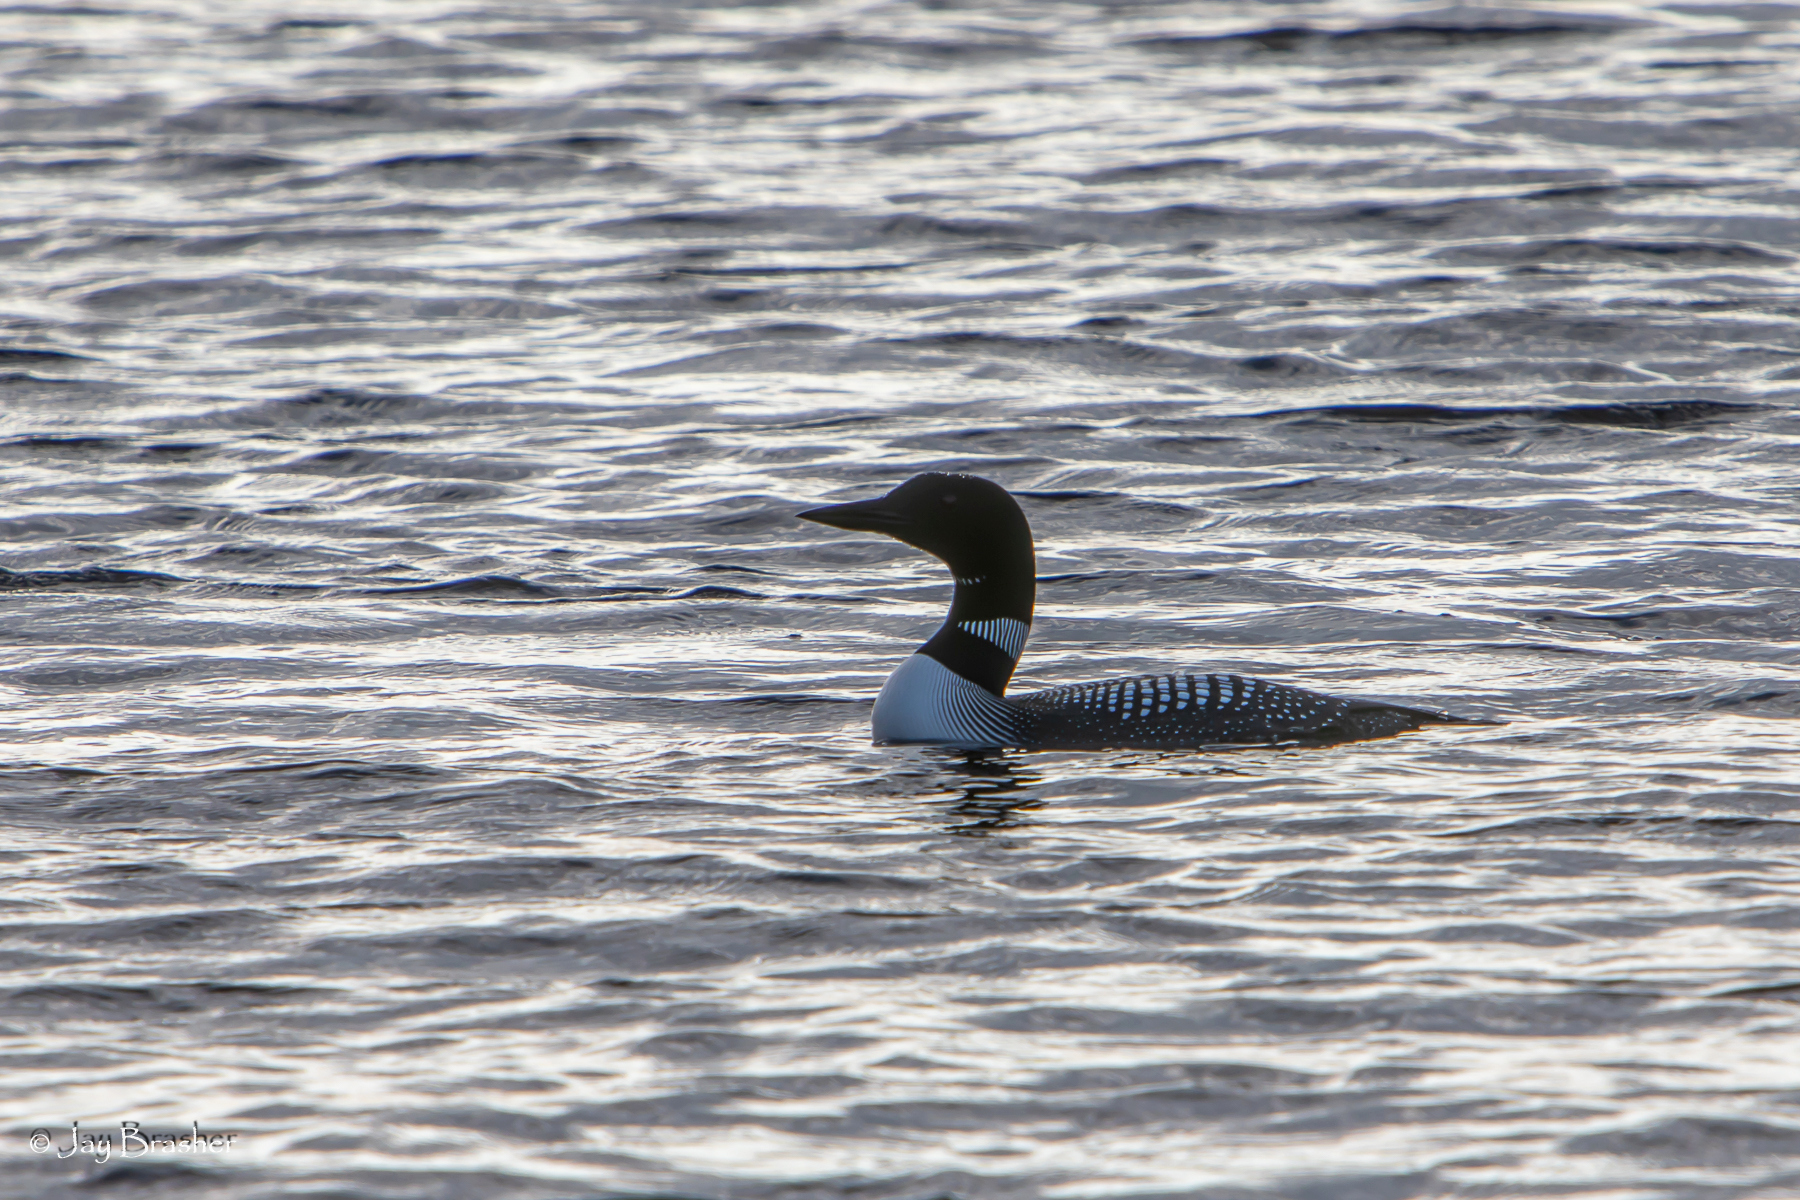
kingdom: Animalia
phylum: Chordata
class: Aves
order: Gaviiformes
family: Gaviidae
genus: Gavia
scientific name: Gavia immer
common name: Common loon
